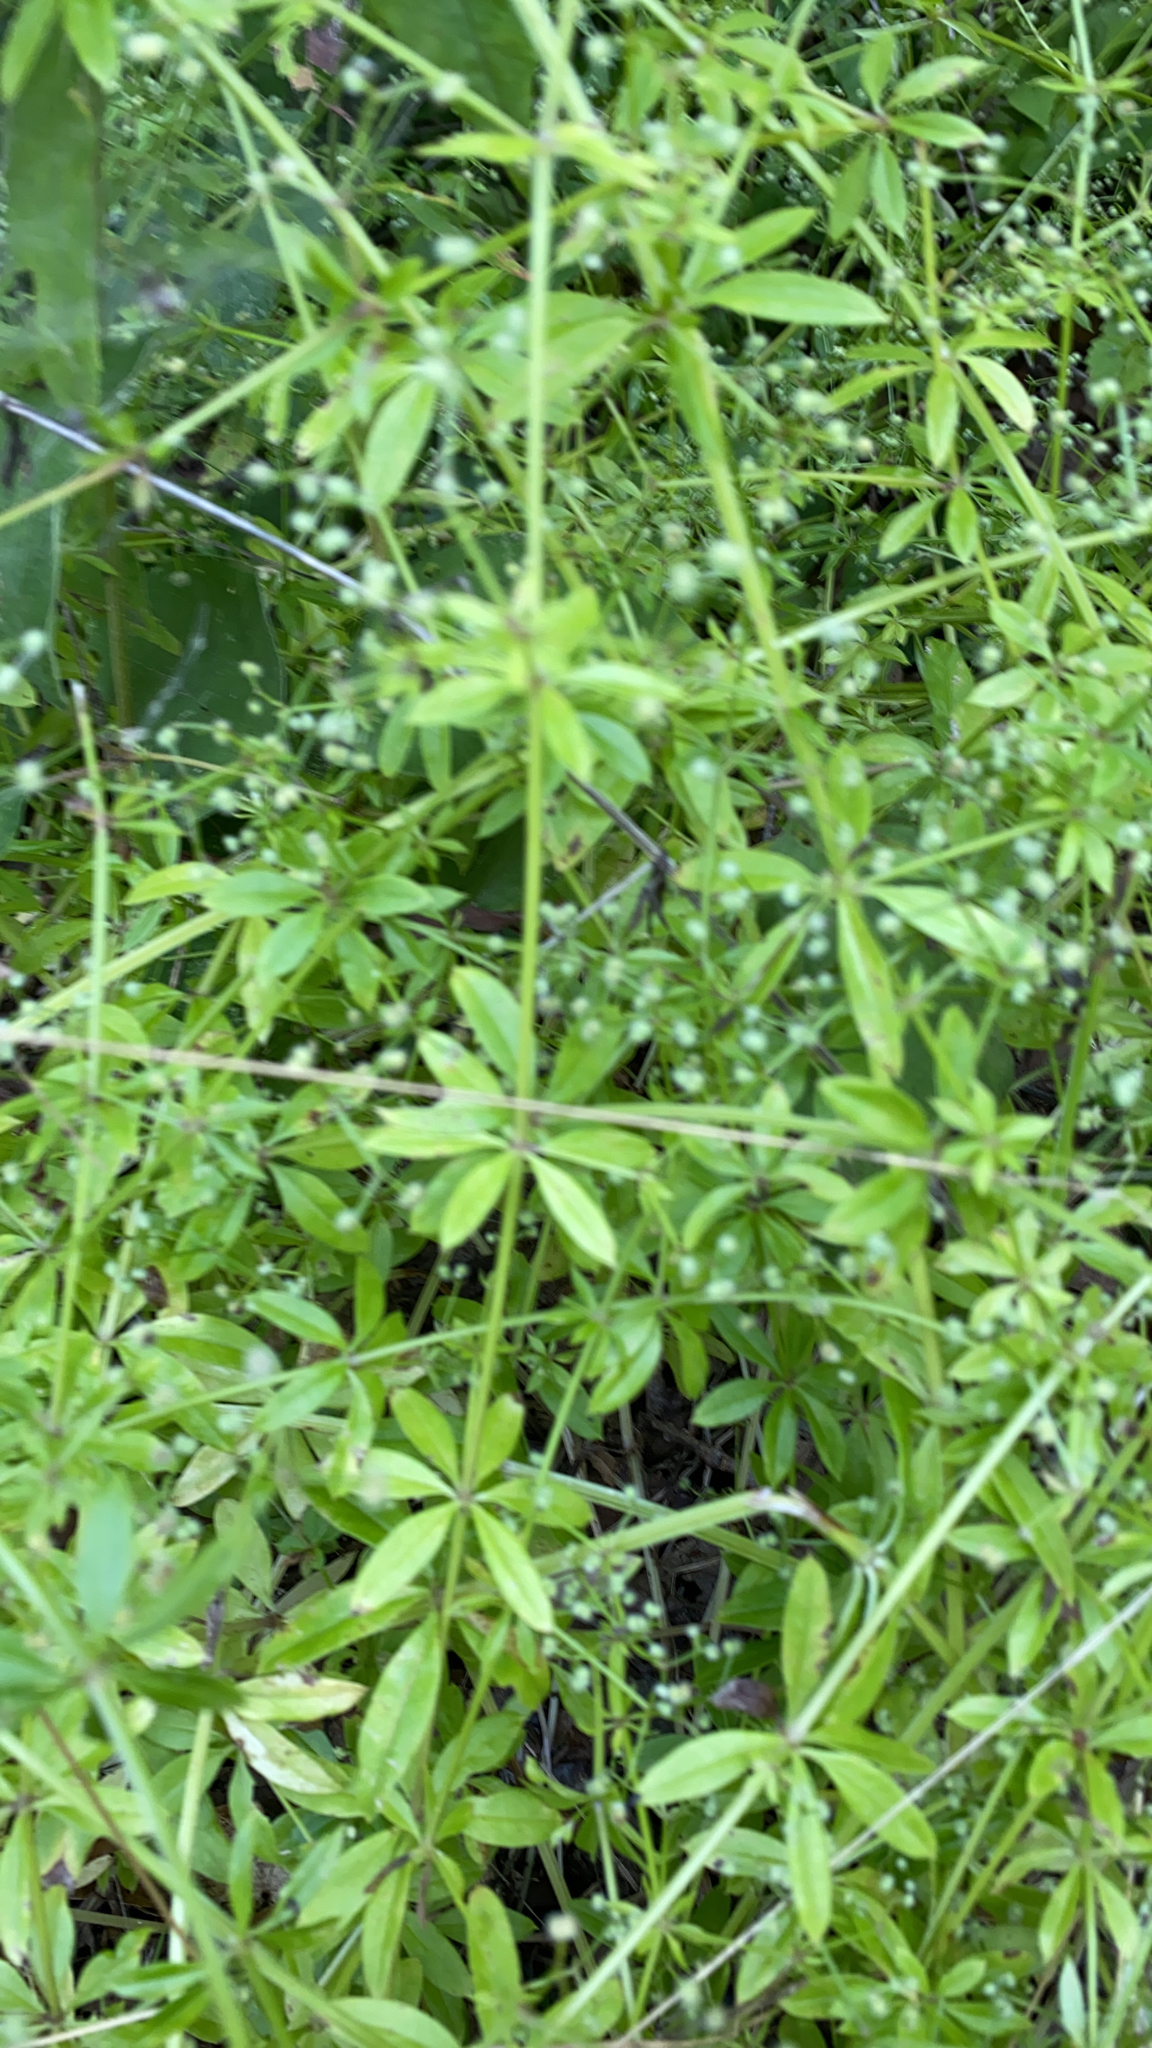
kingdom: Plantae
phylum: Tracheophyta
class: Magnoliopsida
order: Gentianales
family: Rubiaceae
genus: Galium
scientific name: Galium triflorum
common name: Fragrant bedstraw
